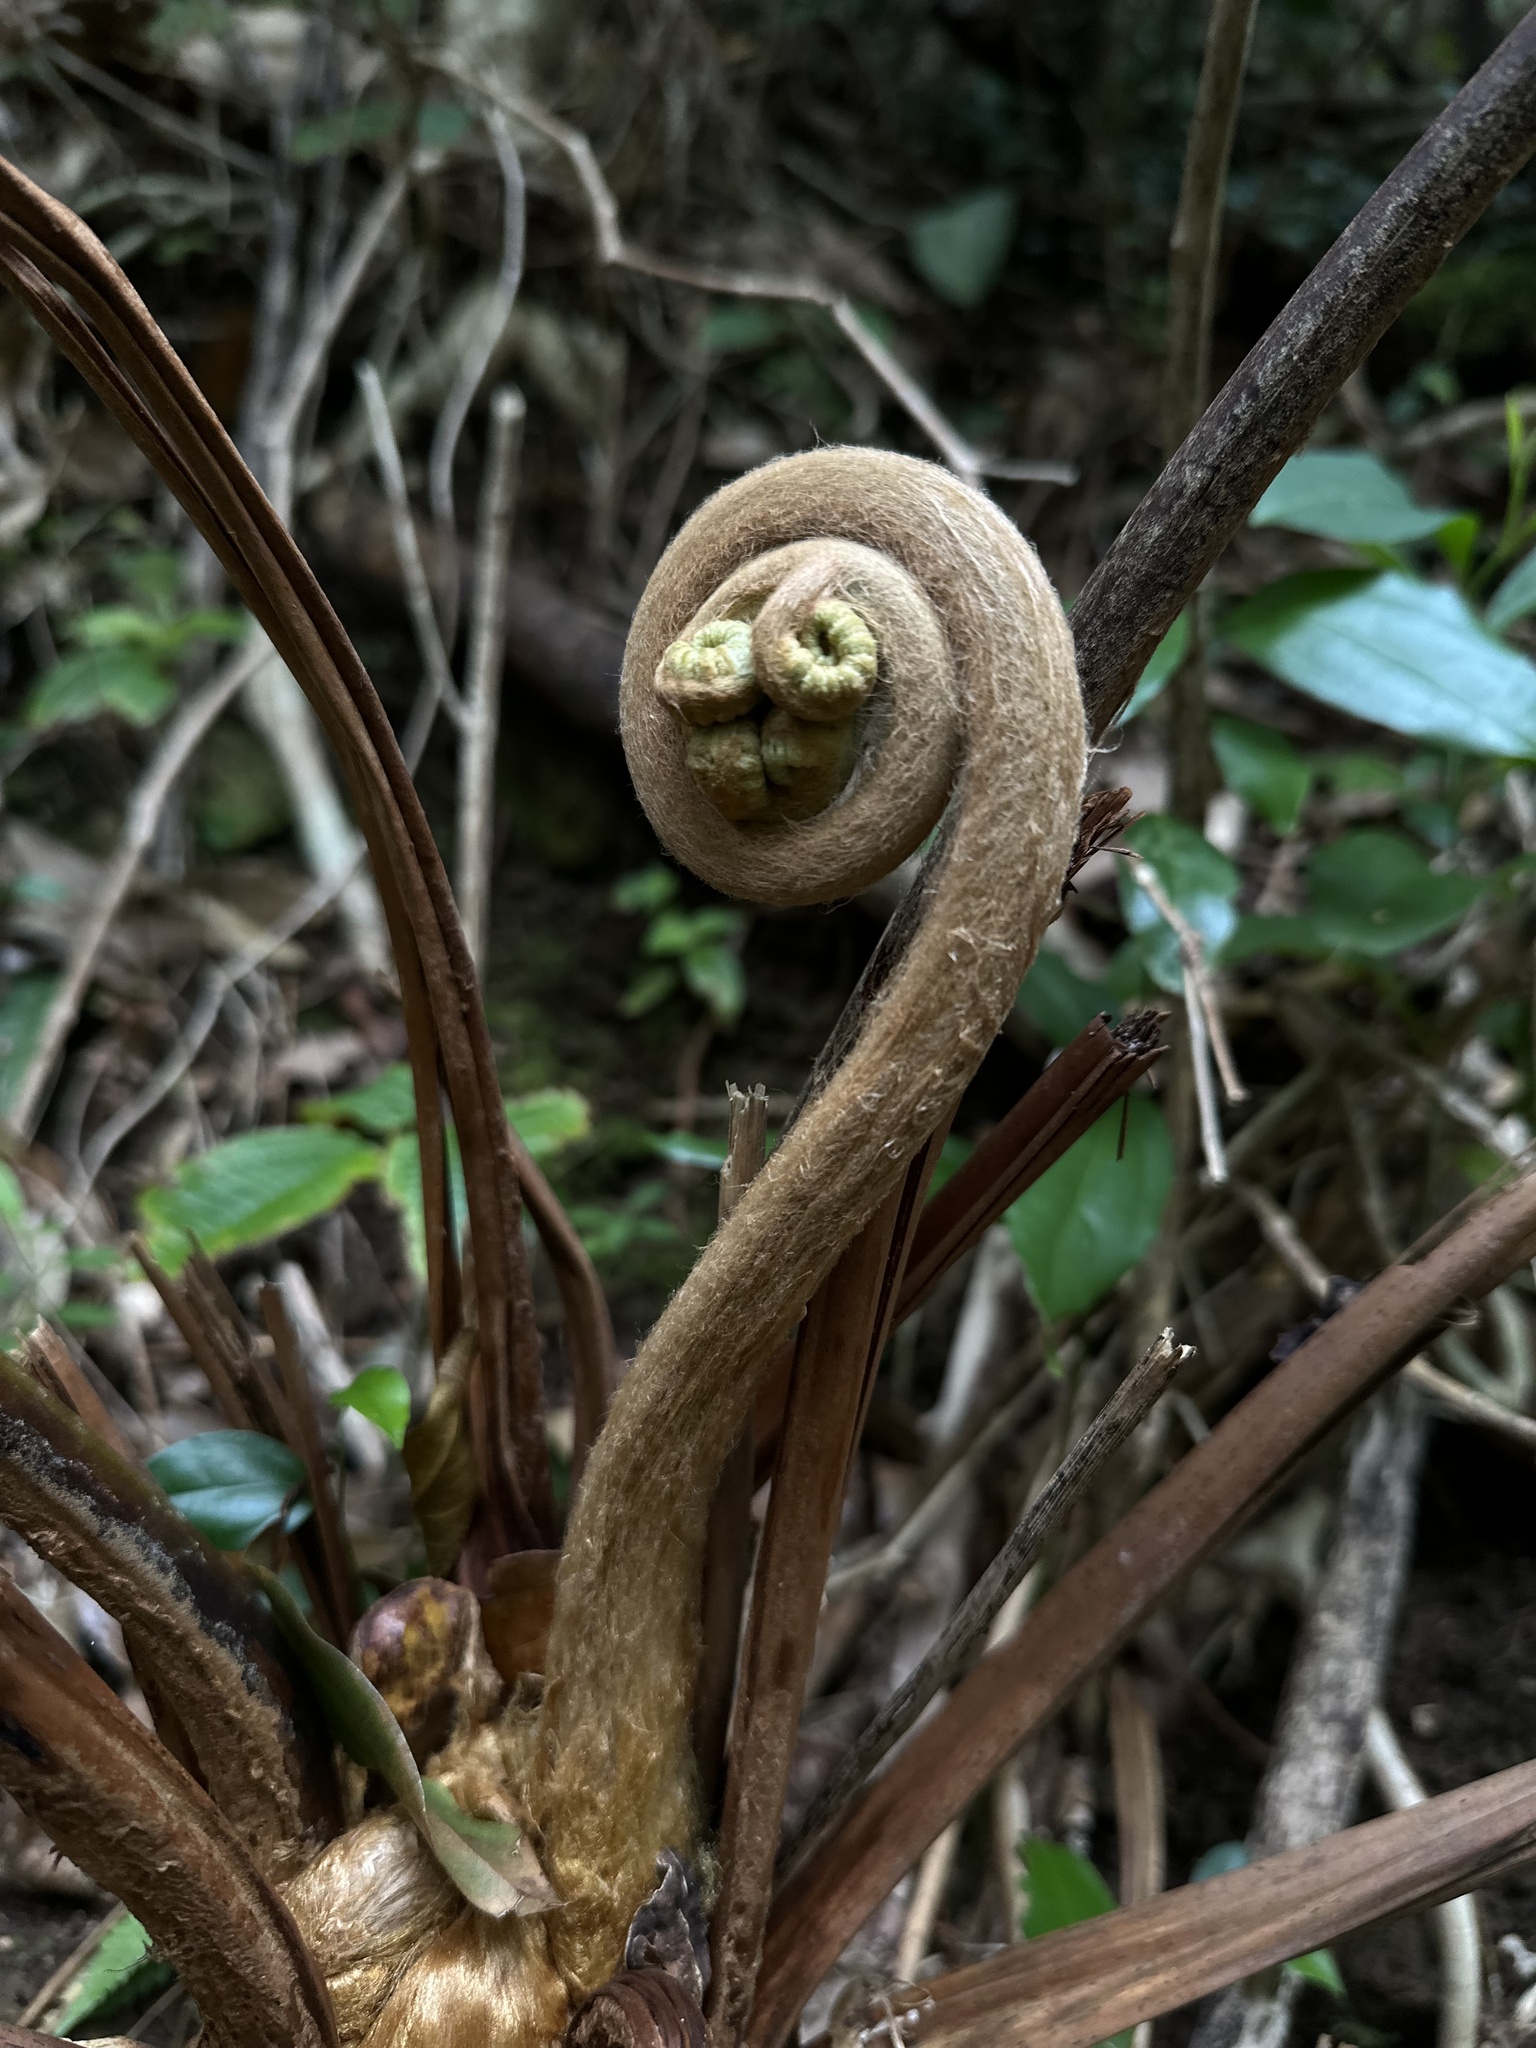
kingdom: Plantae
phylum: Tracheophyta
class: Polypodiopsida
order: Cyatheales
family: Cibotiaceae
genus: Cibotium
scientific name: Cibotium glaucum
